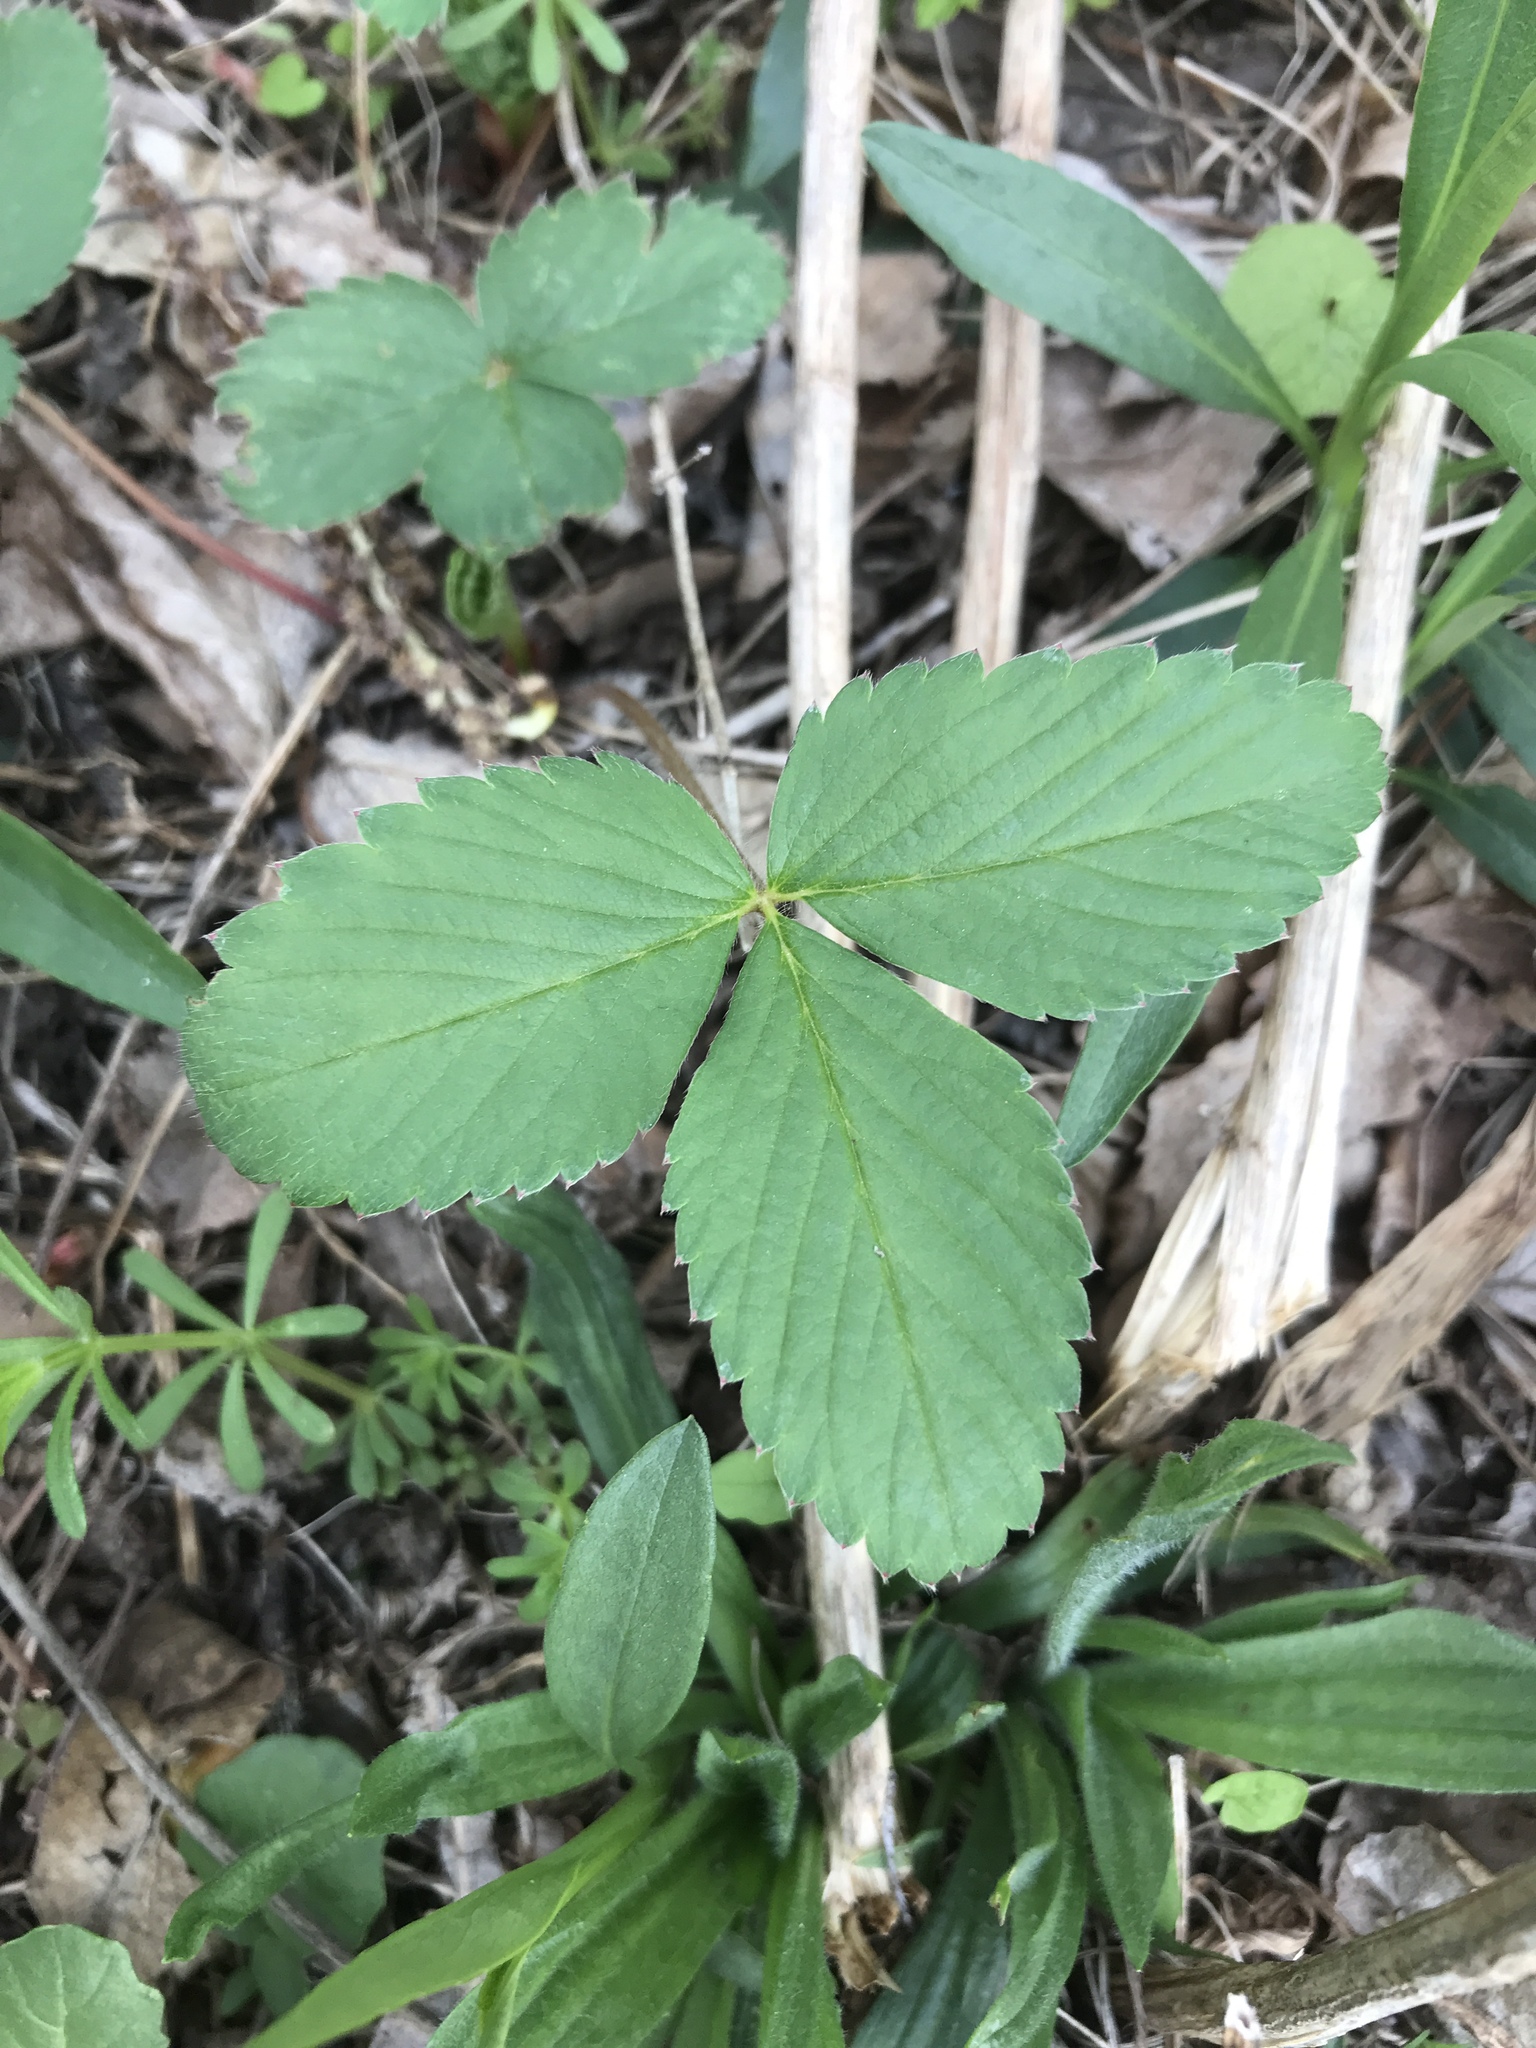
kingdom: Plantae
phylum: Tracheophyta
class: Magnoliopsida
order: Rosales
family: Rosaceae
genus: Fragaria
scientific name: Fragaria virginiana
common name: Thickleaved wild strawberry
